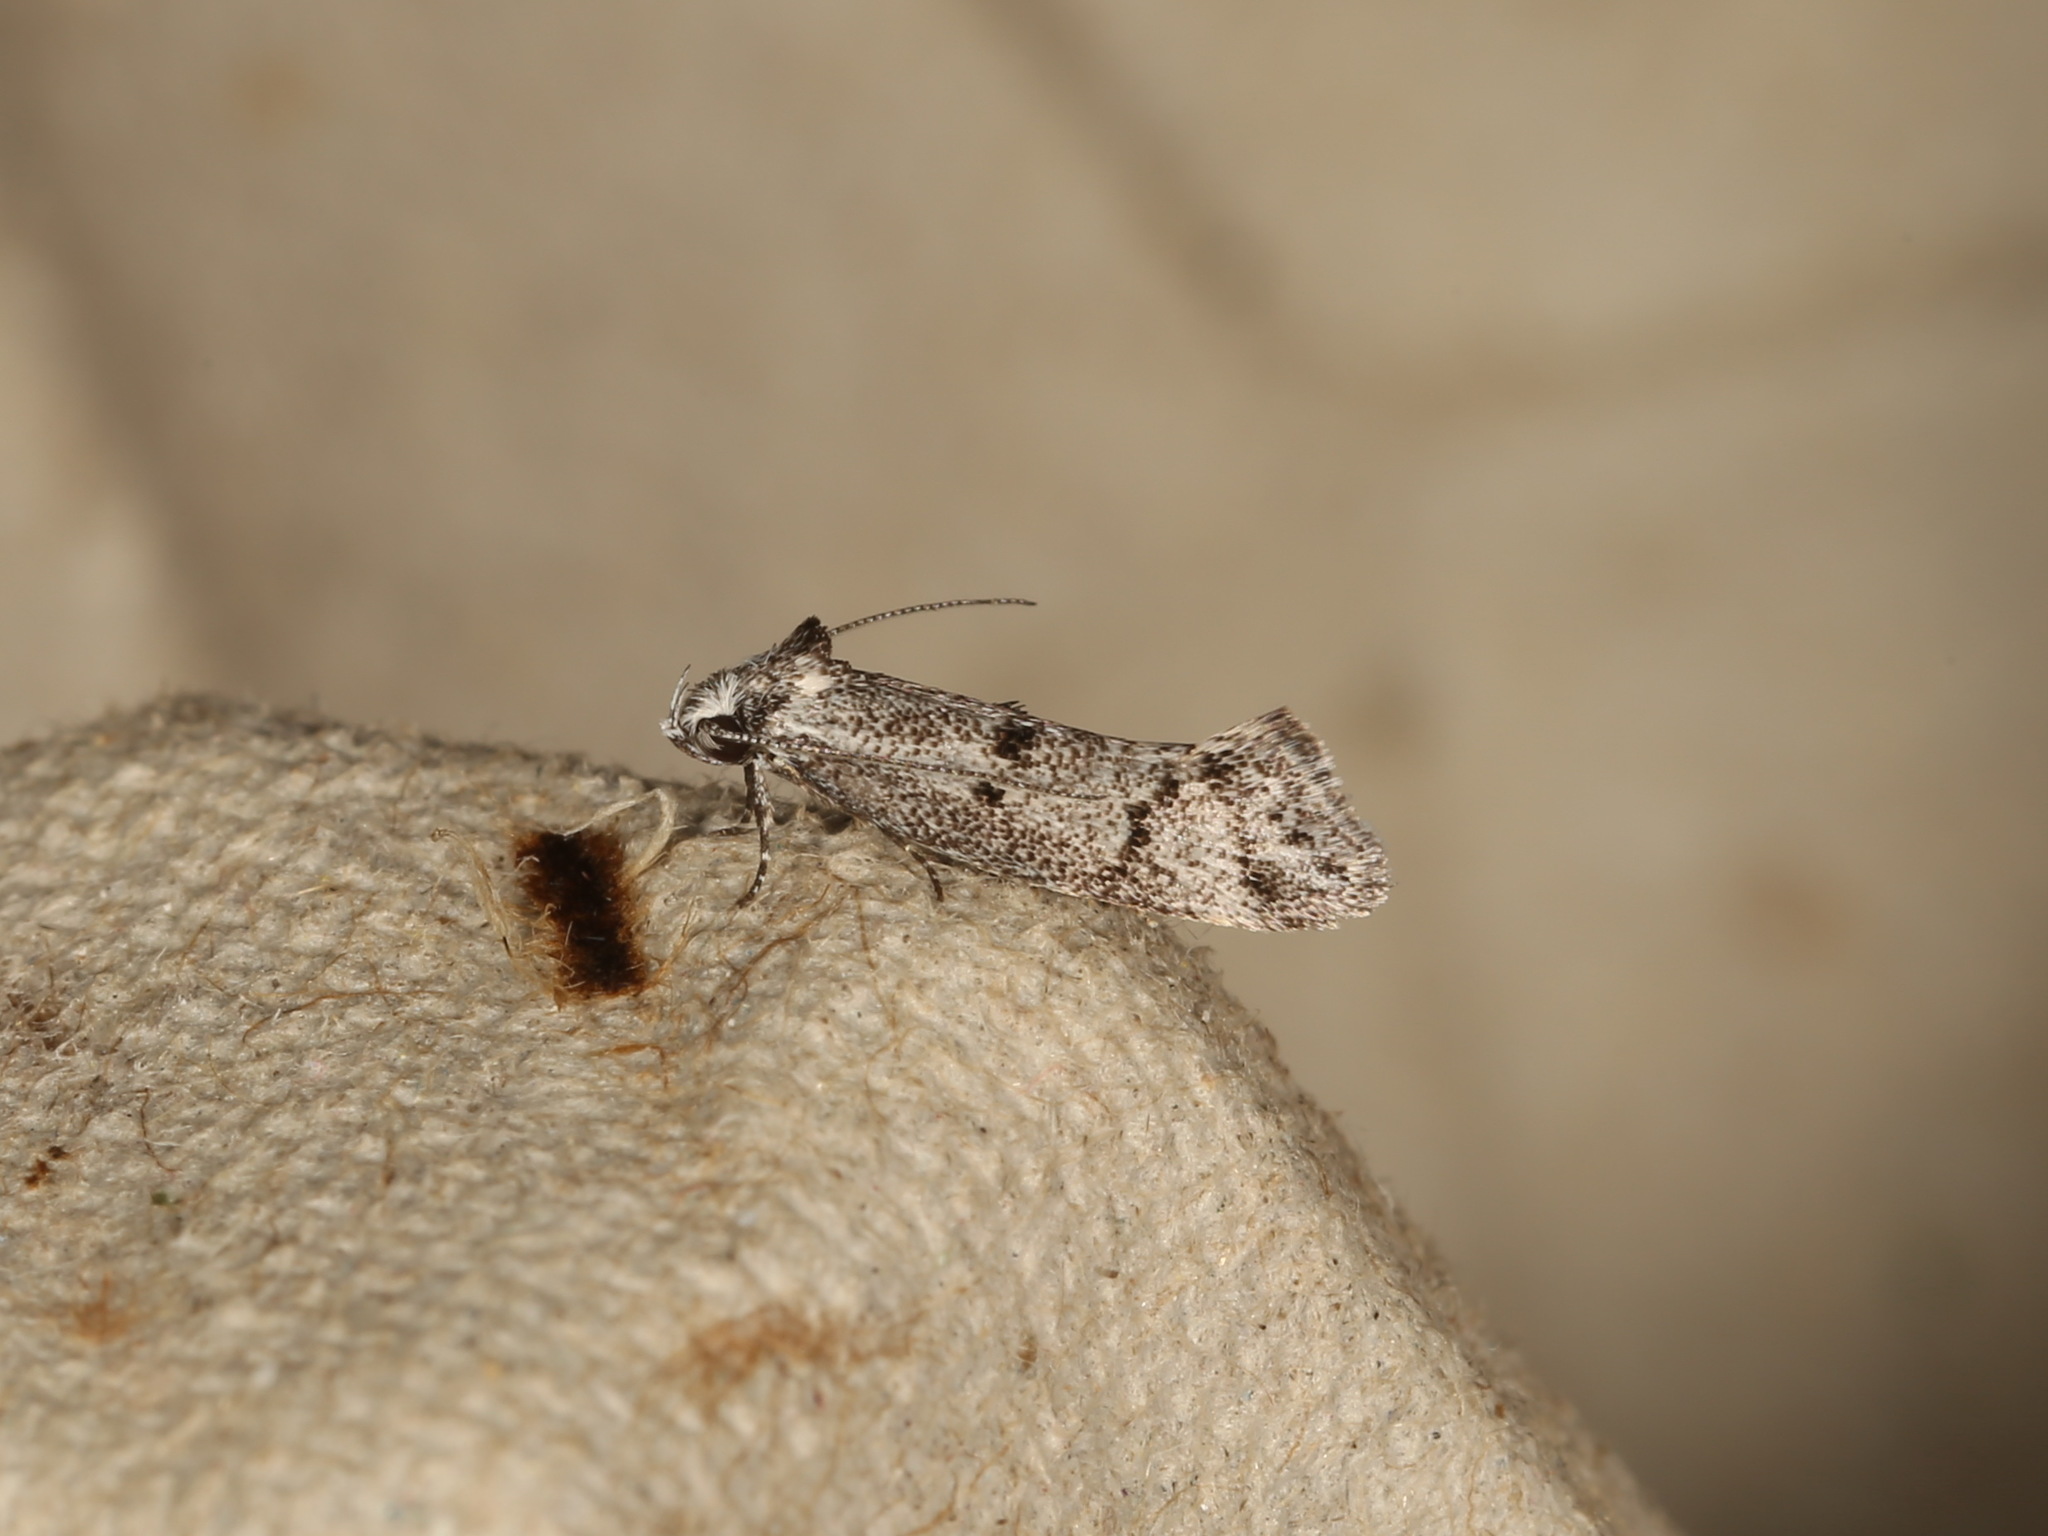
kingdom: Animalia
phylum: Arthropoda
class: Insecta
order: Lepidoptera
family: Oecophoridae
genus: Heterozyga
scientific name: Heterozyga coppatias
